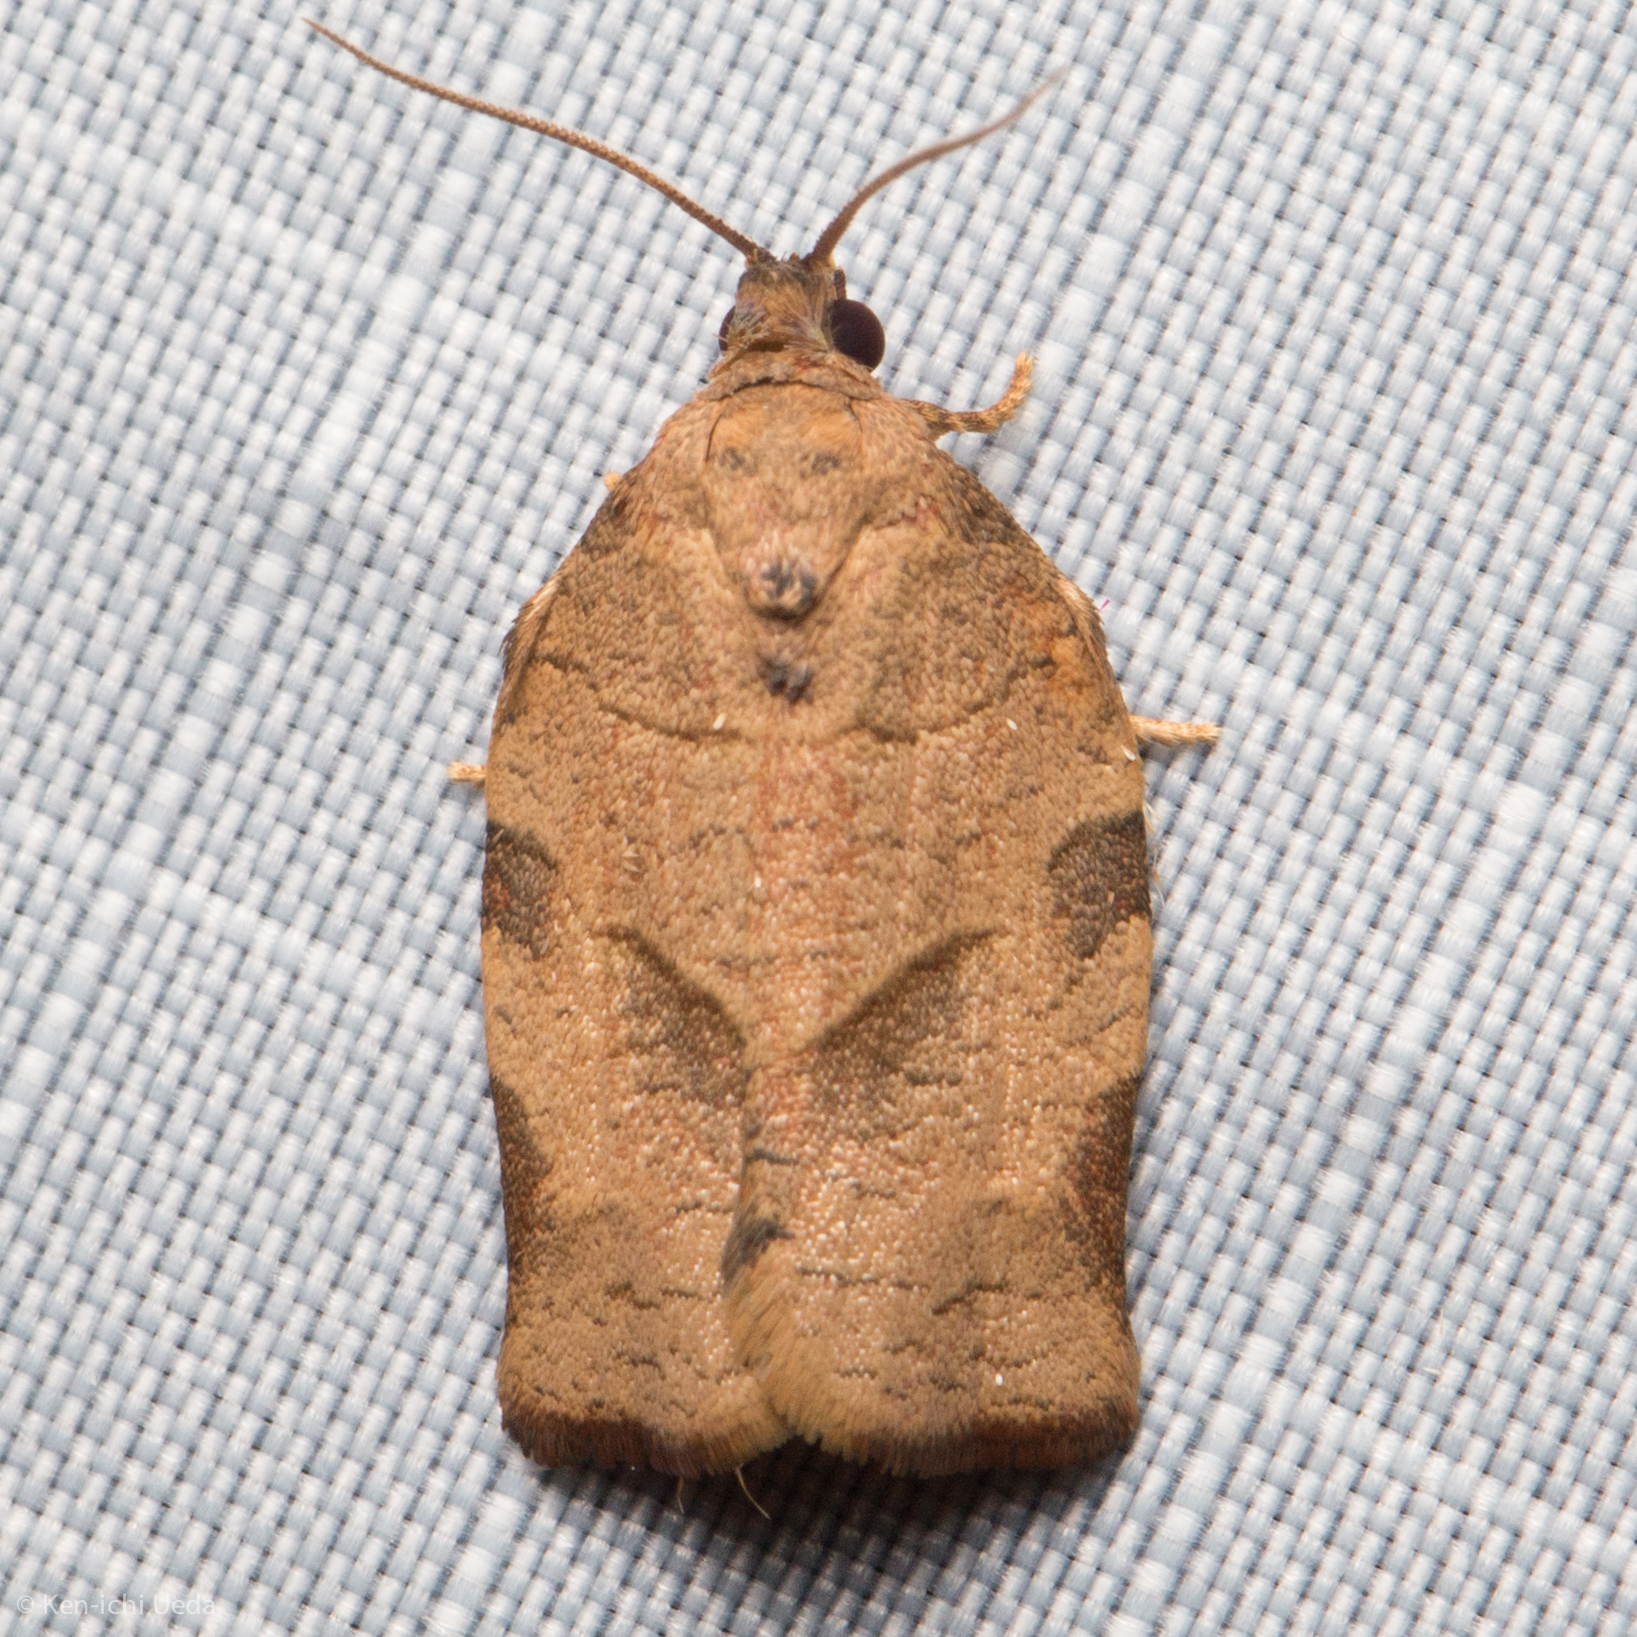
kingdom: Animalia
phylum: Arthropoda
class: Insecta
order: Lepidoptera
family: Tortricidae
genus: Choristoneura
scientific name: Choristoneura rosaceana
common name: Oblique-banded leafroller moth
